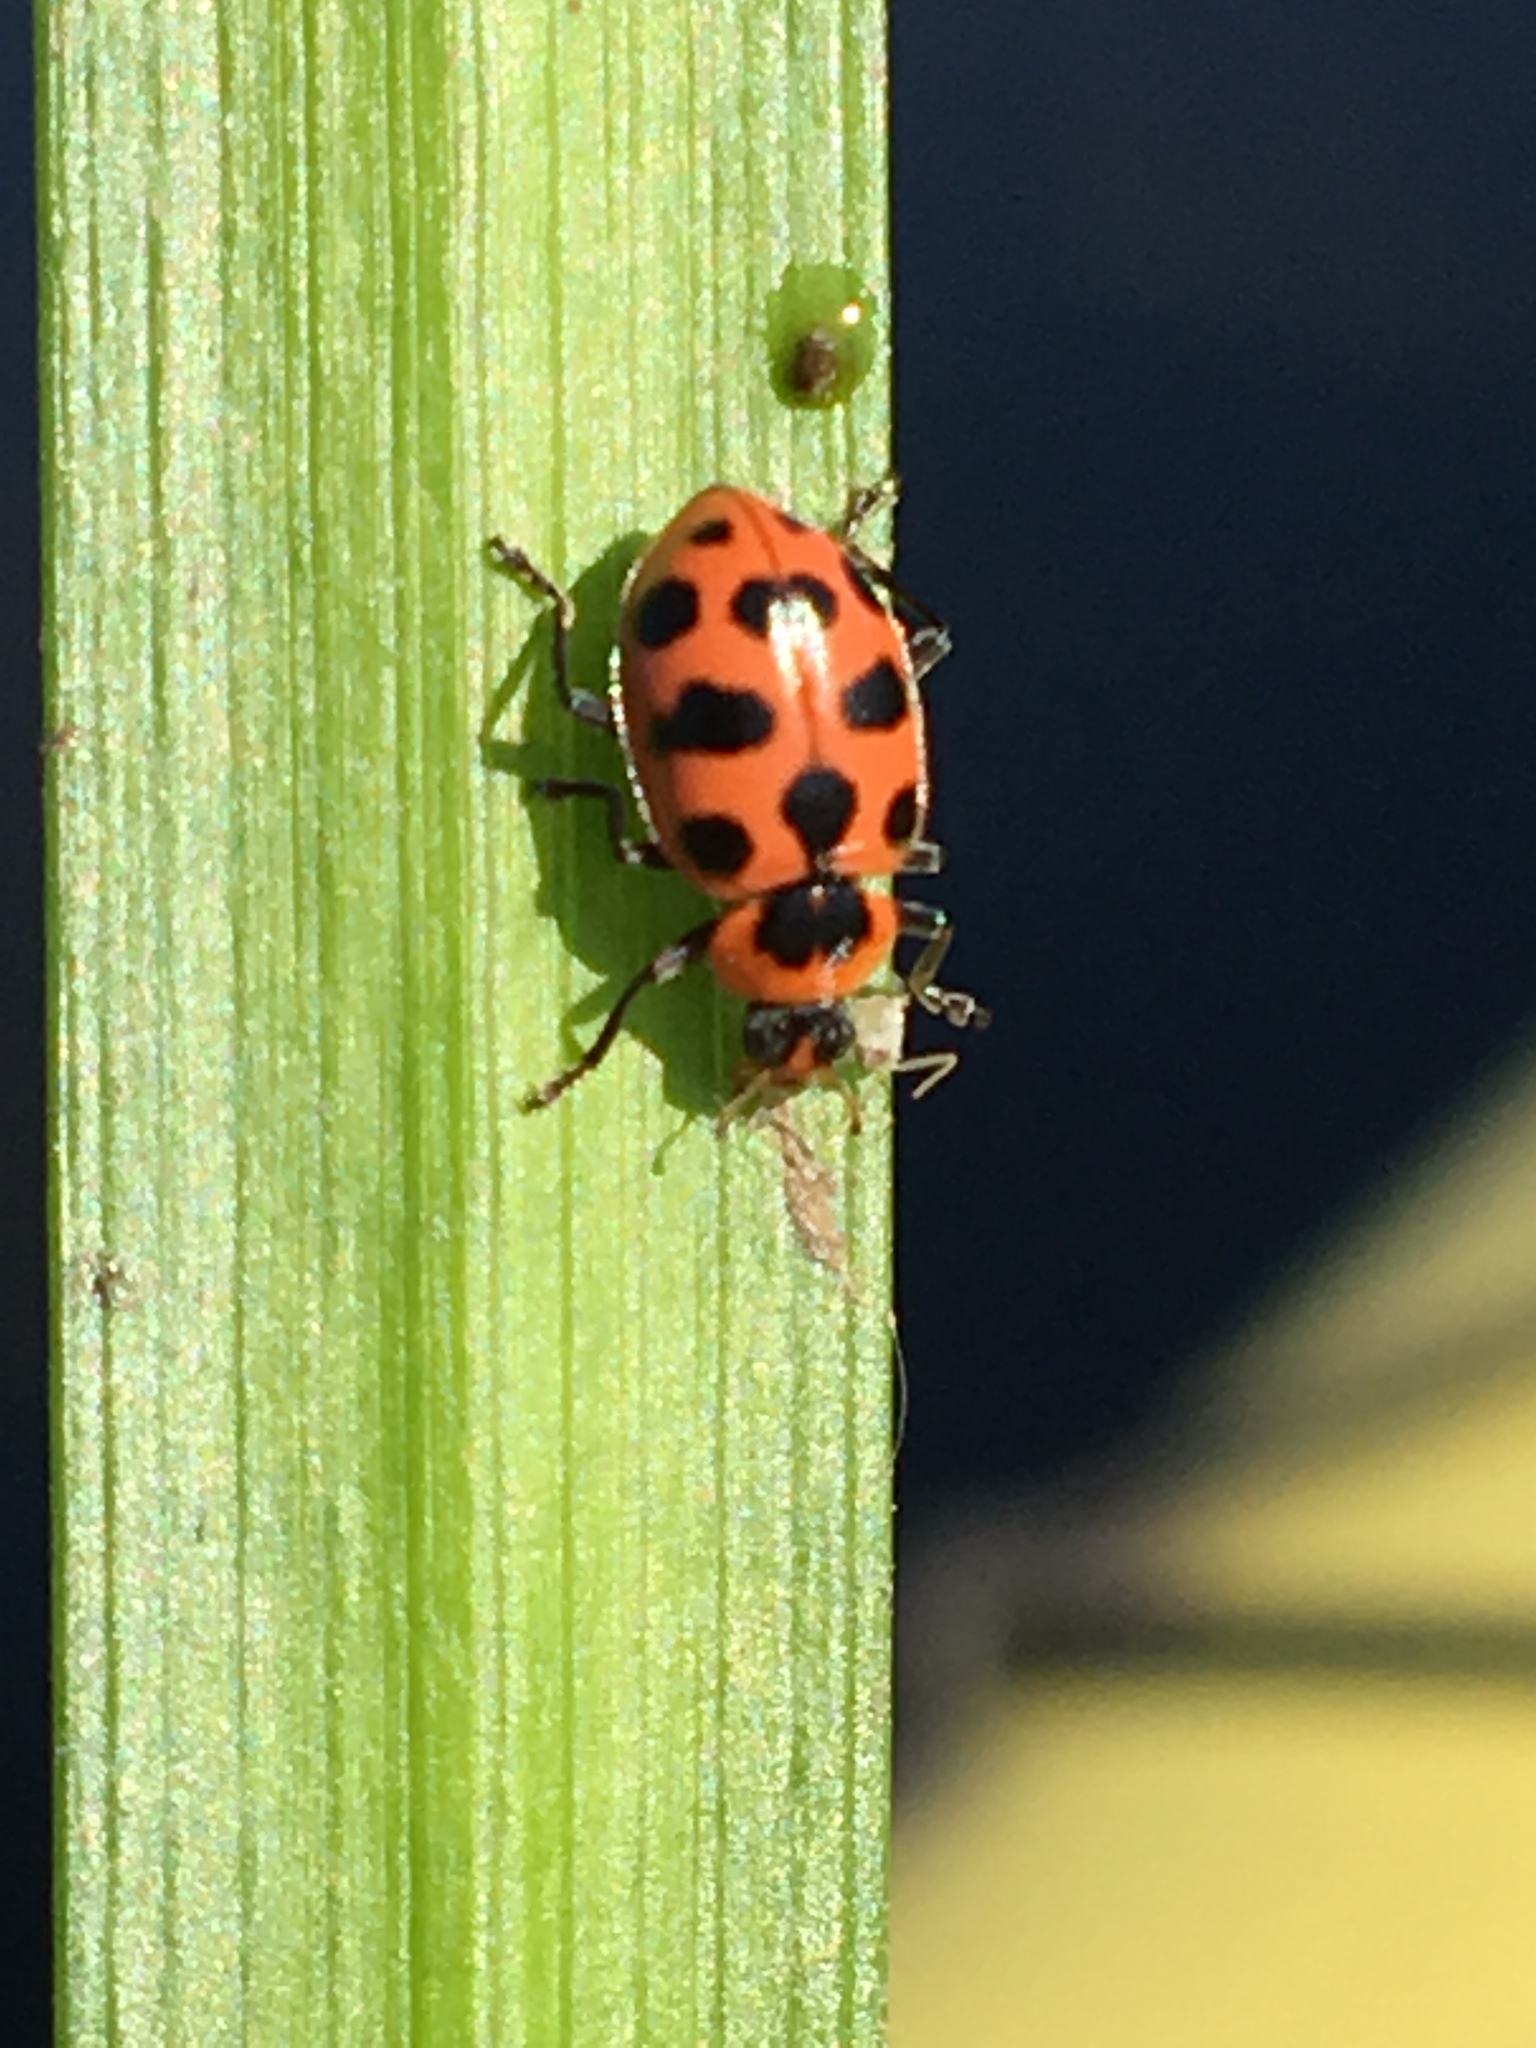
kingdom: Animalia
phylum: Arthropoda
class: Insecta
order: Coleoptera
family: Coccinellidae
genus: Coleomegilla
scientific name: Coleomegilla maculata
